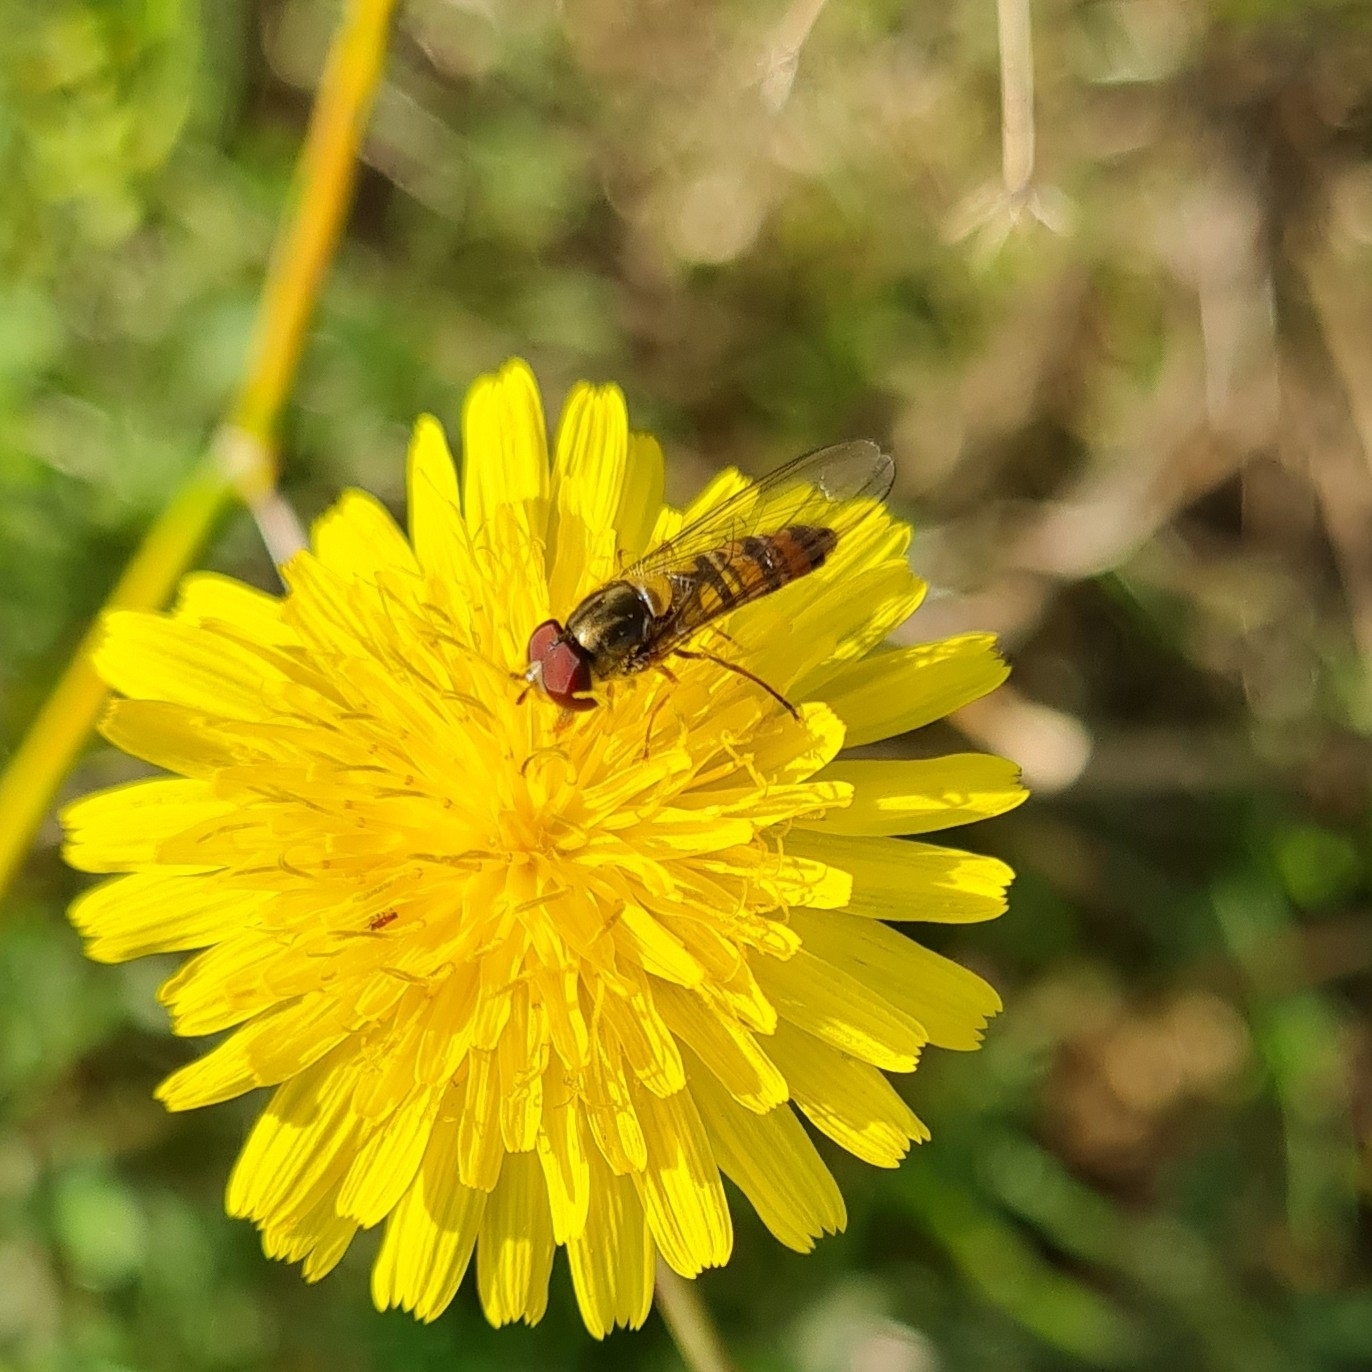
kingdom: Animalia
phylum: Arthropoda
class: Insecta
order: Diptera
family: Syrphidae
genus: Episyrphus
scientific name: Episyrphus balteatus
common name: Marmalade hoverfly
